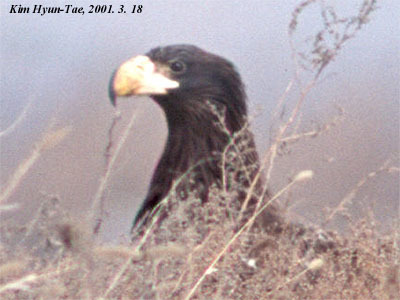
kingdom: Animalia
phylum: Chordata
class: Aves
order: Accipitriformes
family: Accipitridae
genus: Haliaeetus
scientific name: Haliaeetus pelagicus
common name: Steller's sea eagle
